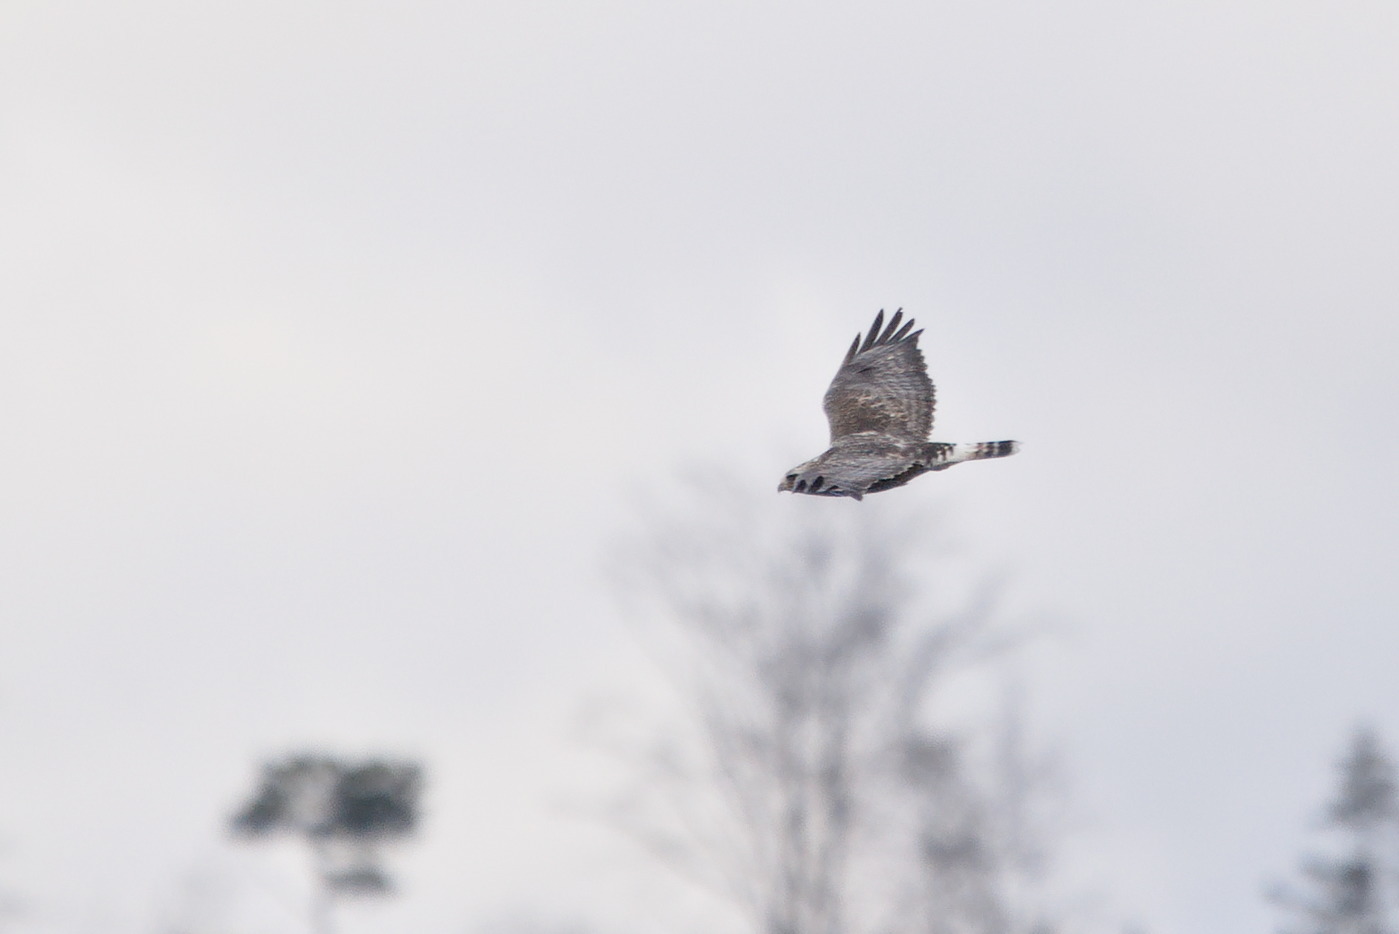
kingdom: Animalia
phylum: Chordata
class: Aves
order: Accipitriformes
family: Accipitridae
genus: Buteo
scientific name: Buteo lagopus
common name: Rough-legged buzzard
